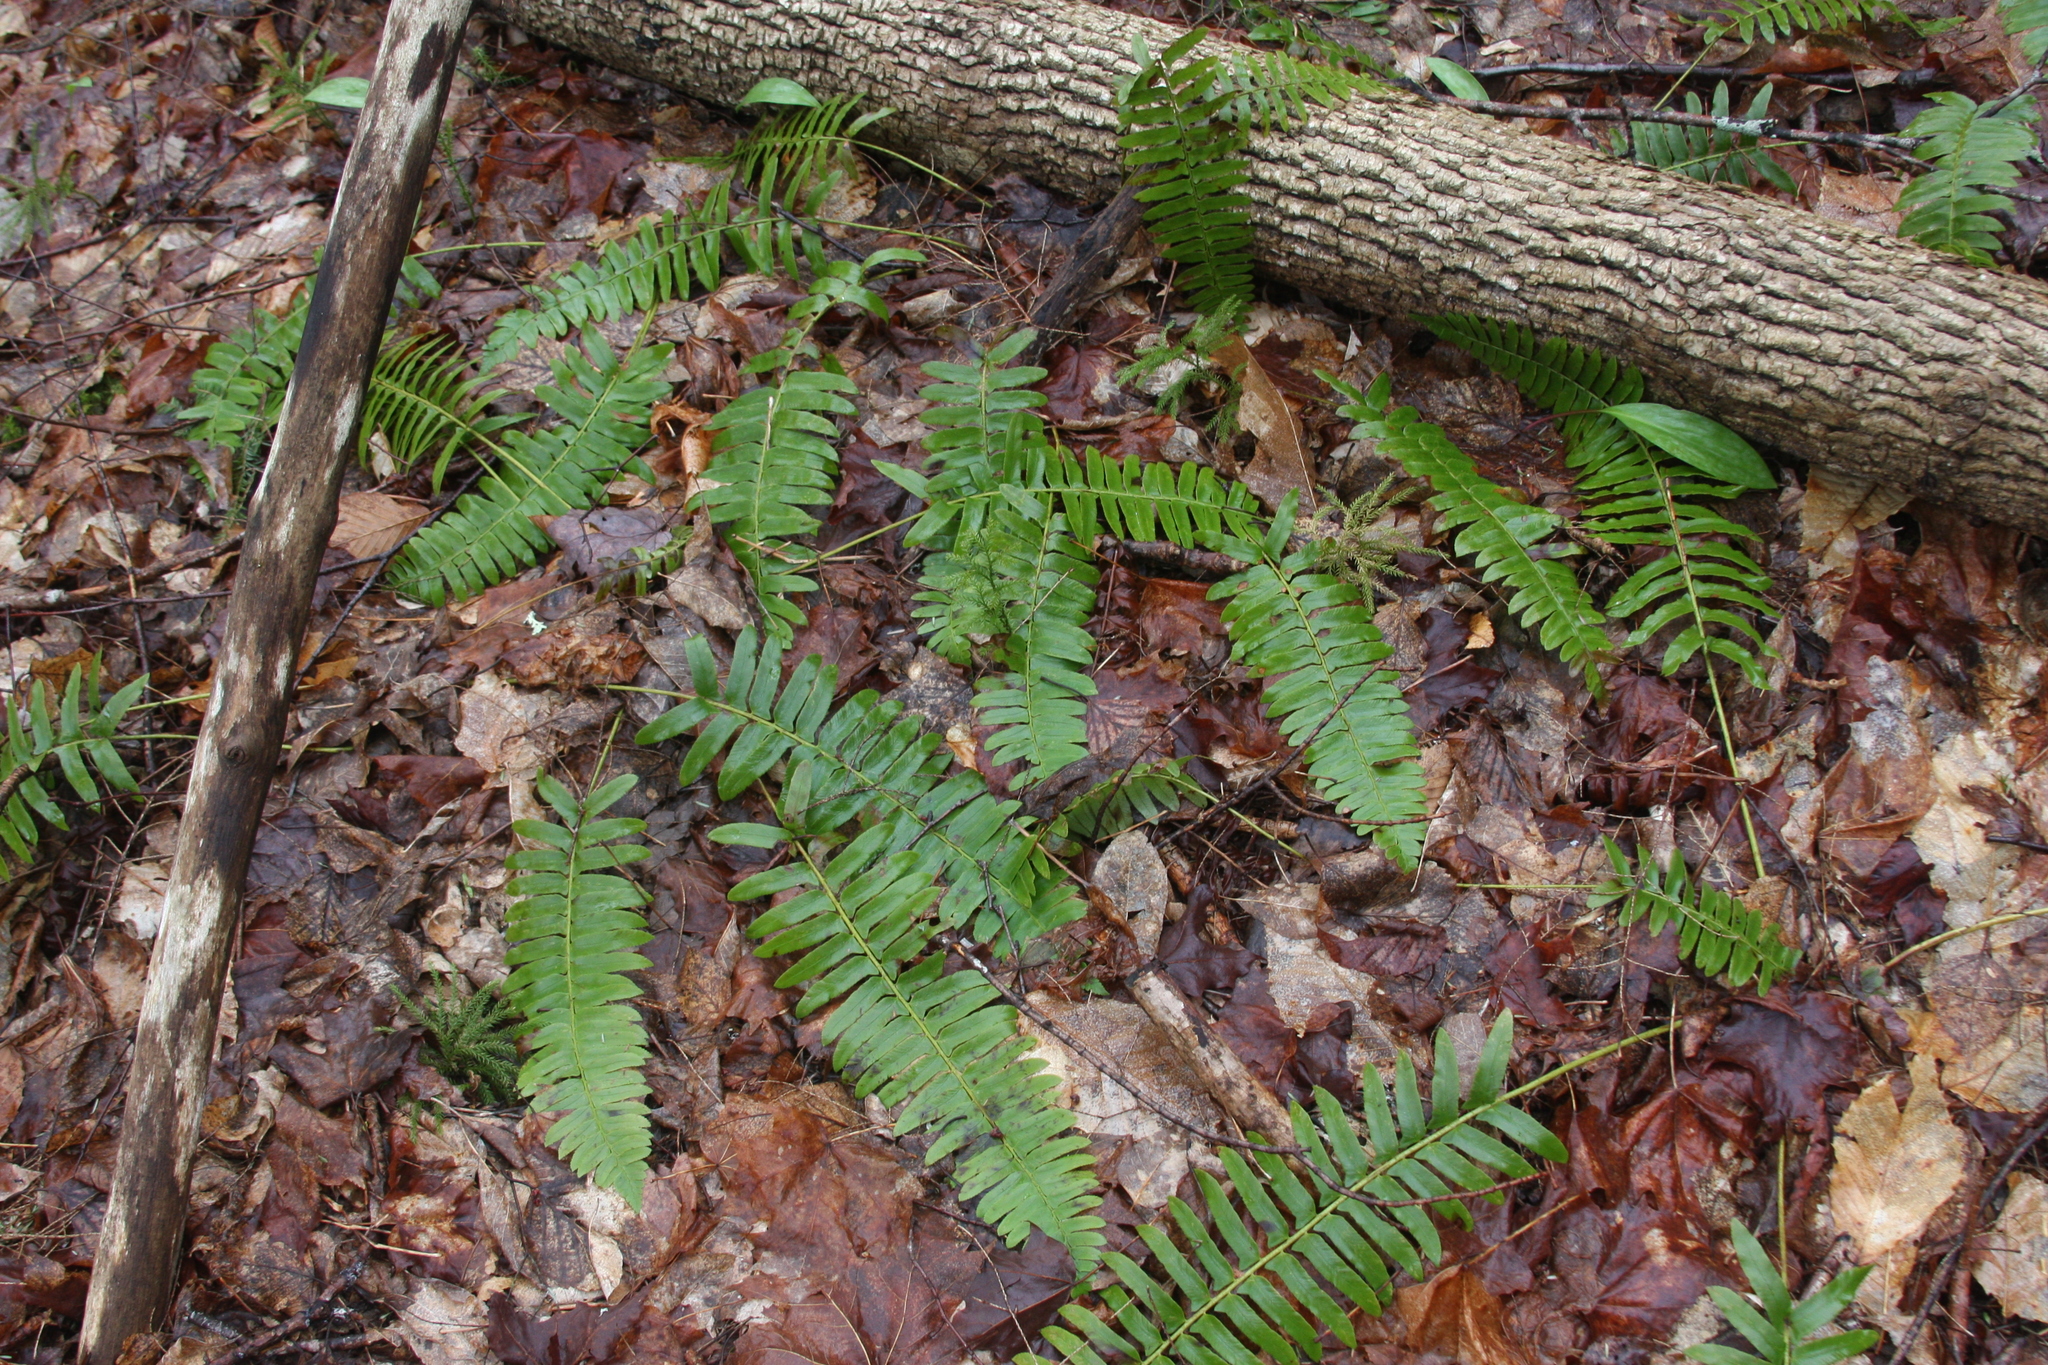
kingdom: Plantae
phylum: Tracheophyta
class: Polypodiopsida
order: Polypodiales
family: Dryopteridaceae
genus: Polystichum
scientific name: Polystichum acrostichoides
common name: Christmas fern
